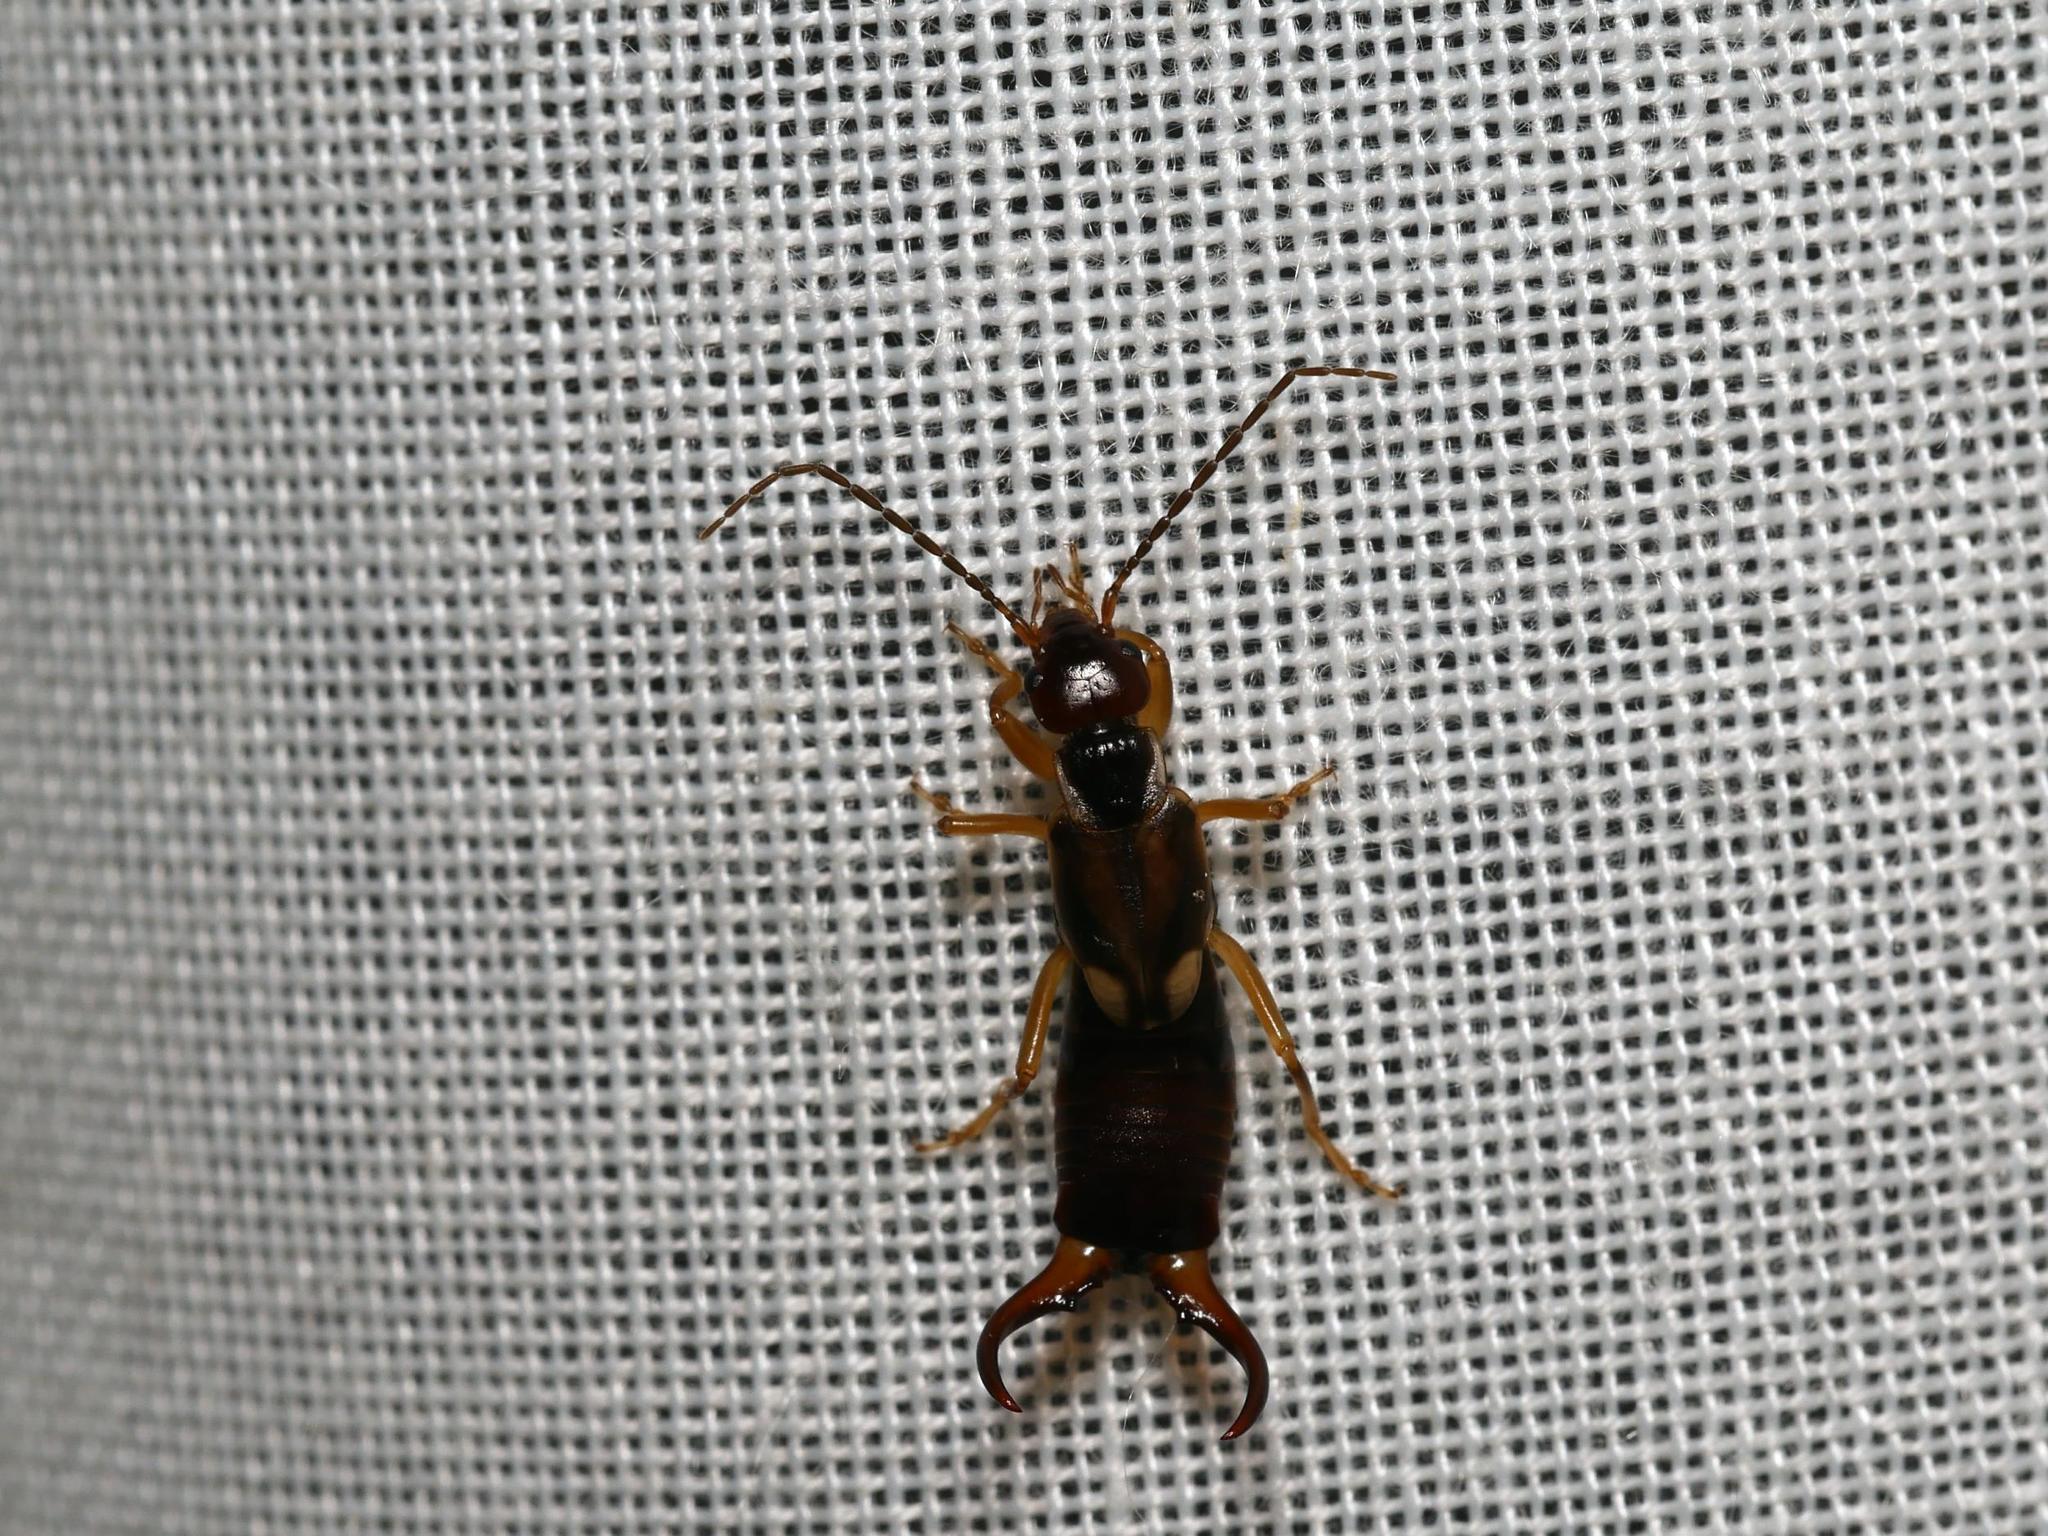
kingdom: Animalia
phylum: Arthropoda
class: Insecta
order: Dermaptera
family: Forficulidae
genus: Forficula
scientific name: Forficula
